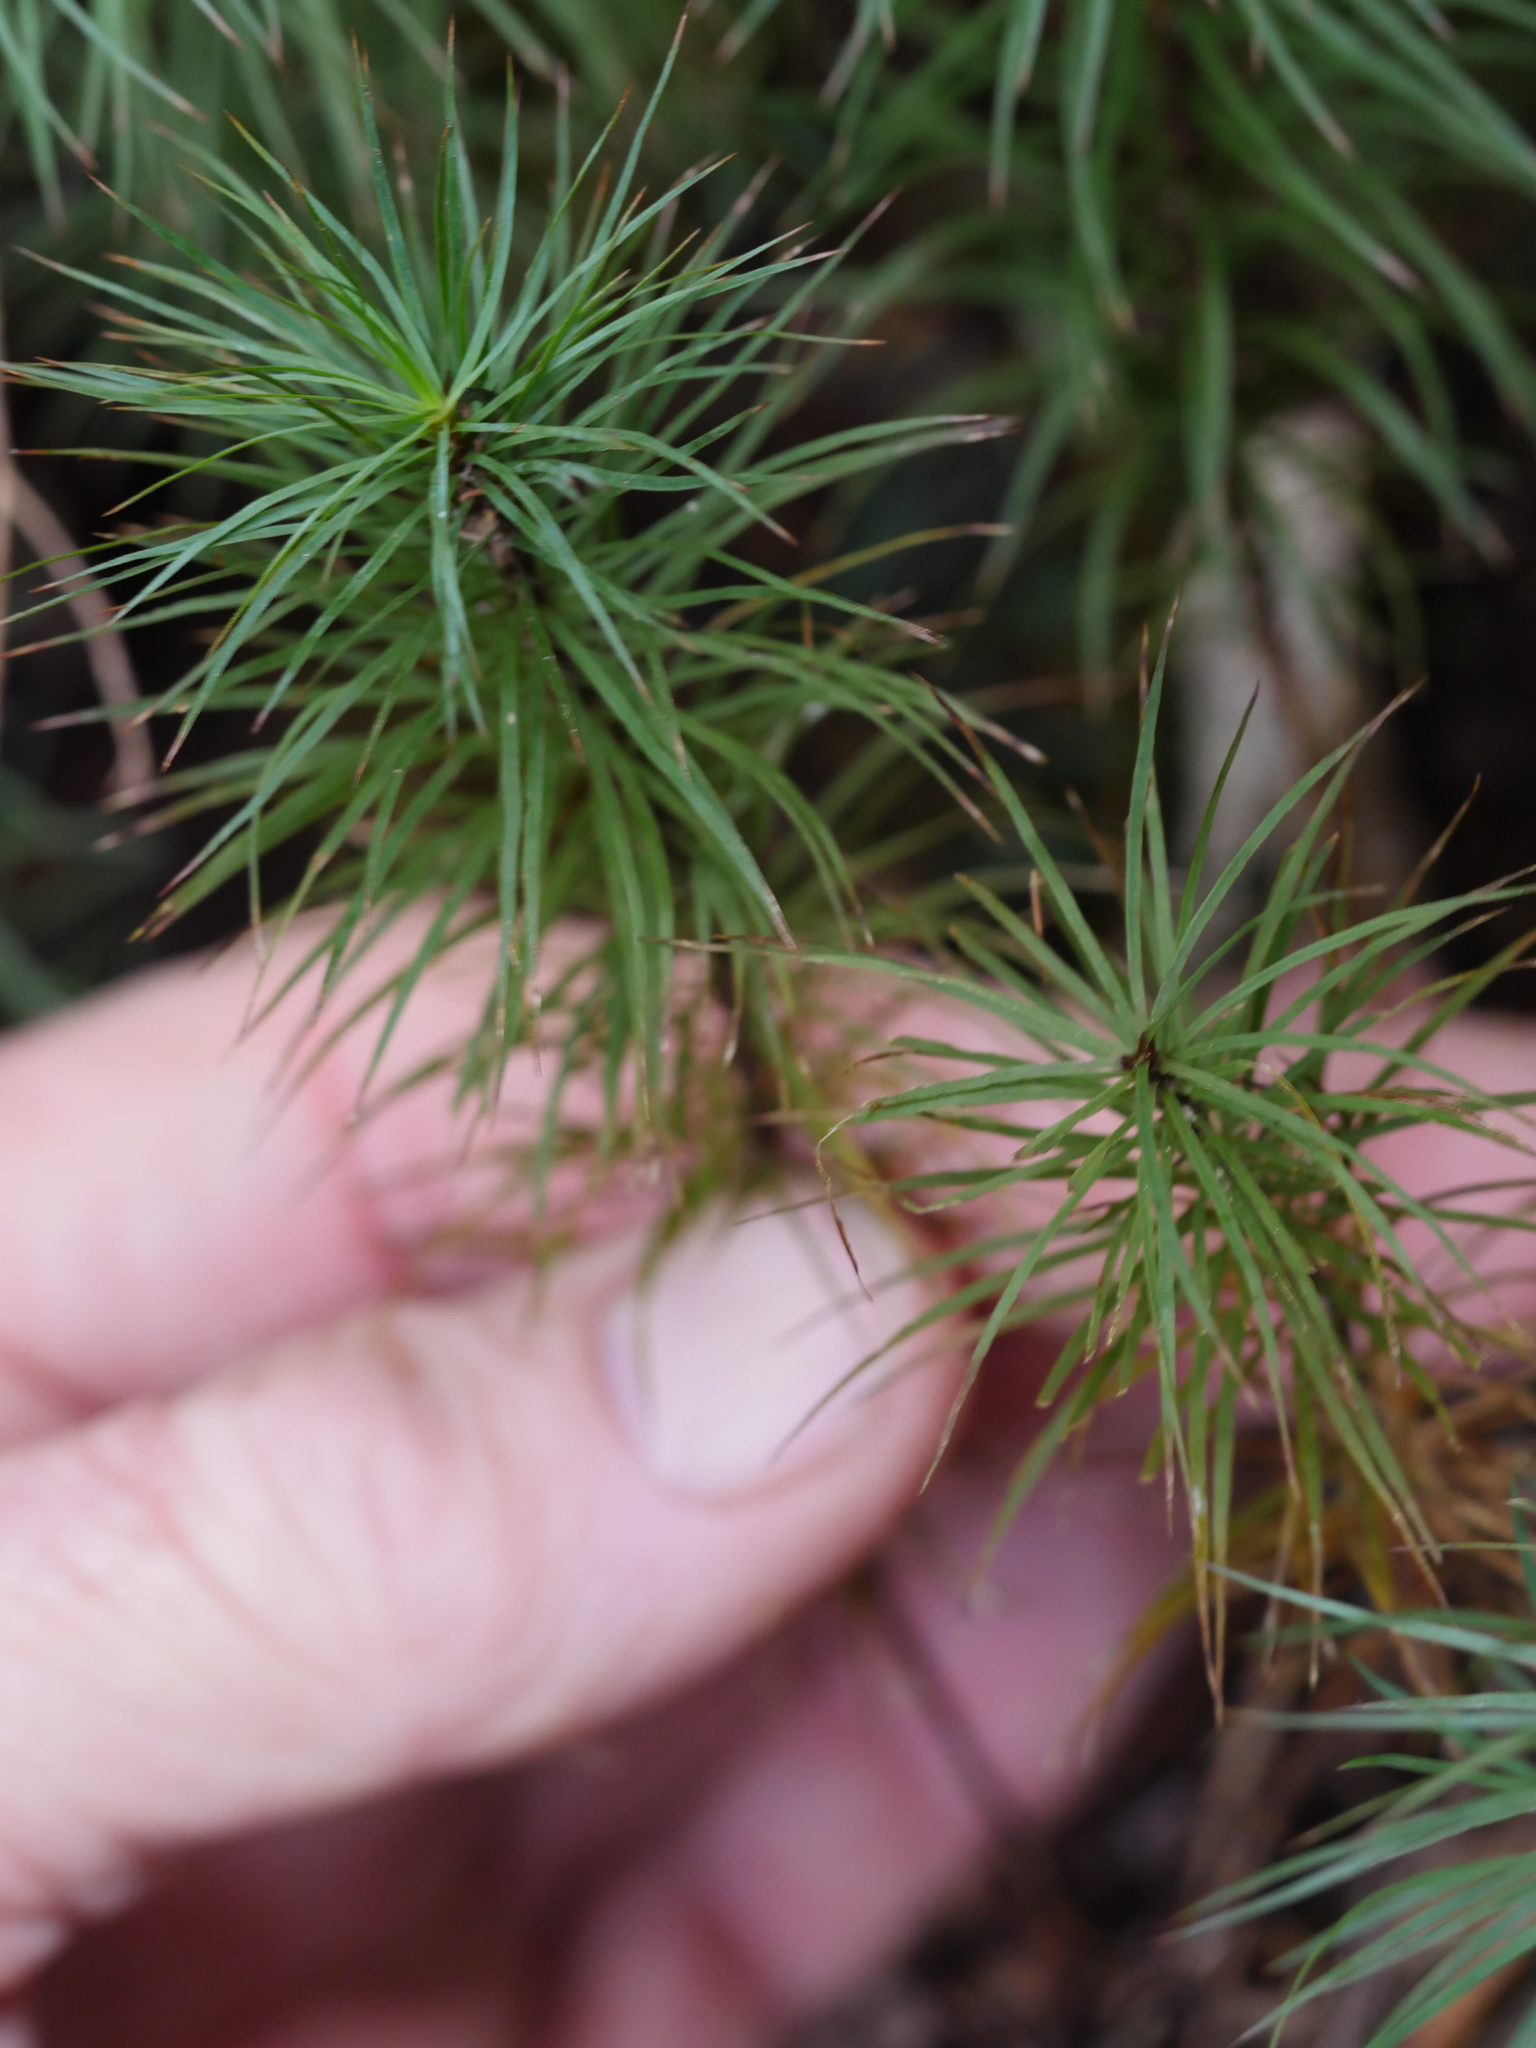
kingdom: Plantae
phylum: Bryophyta
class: Polytrichopsida
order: Polytrichales
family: Polytrichaceae
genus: Dawsonia
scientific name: Dawsonia superba
